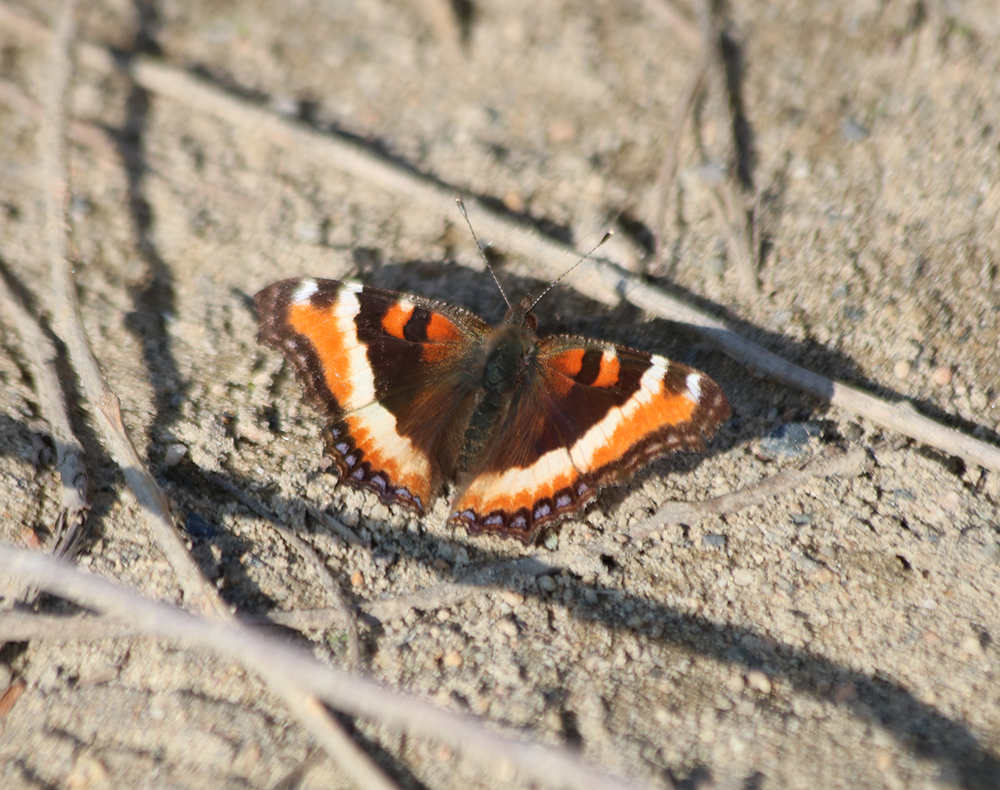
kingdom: Animalia
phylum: Arthropoda
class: Insecta
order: Lepidoptera
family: Nymphalidae
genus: Aglais
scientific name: Aglais milberti
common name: Milbert's tortoiseshell
